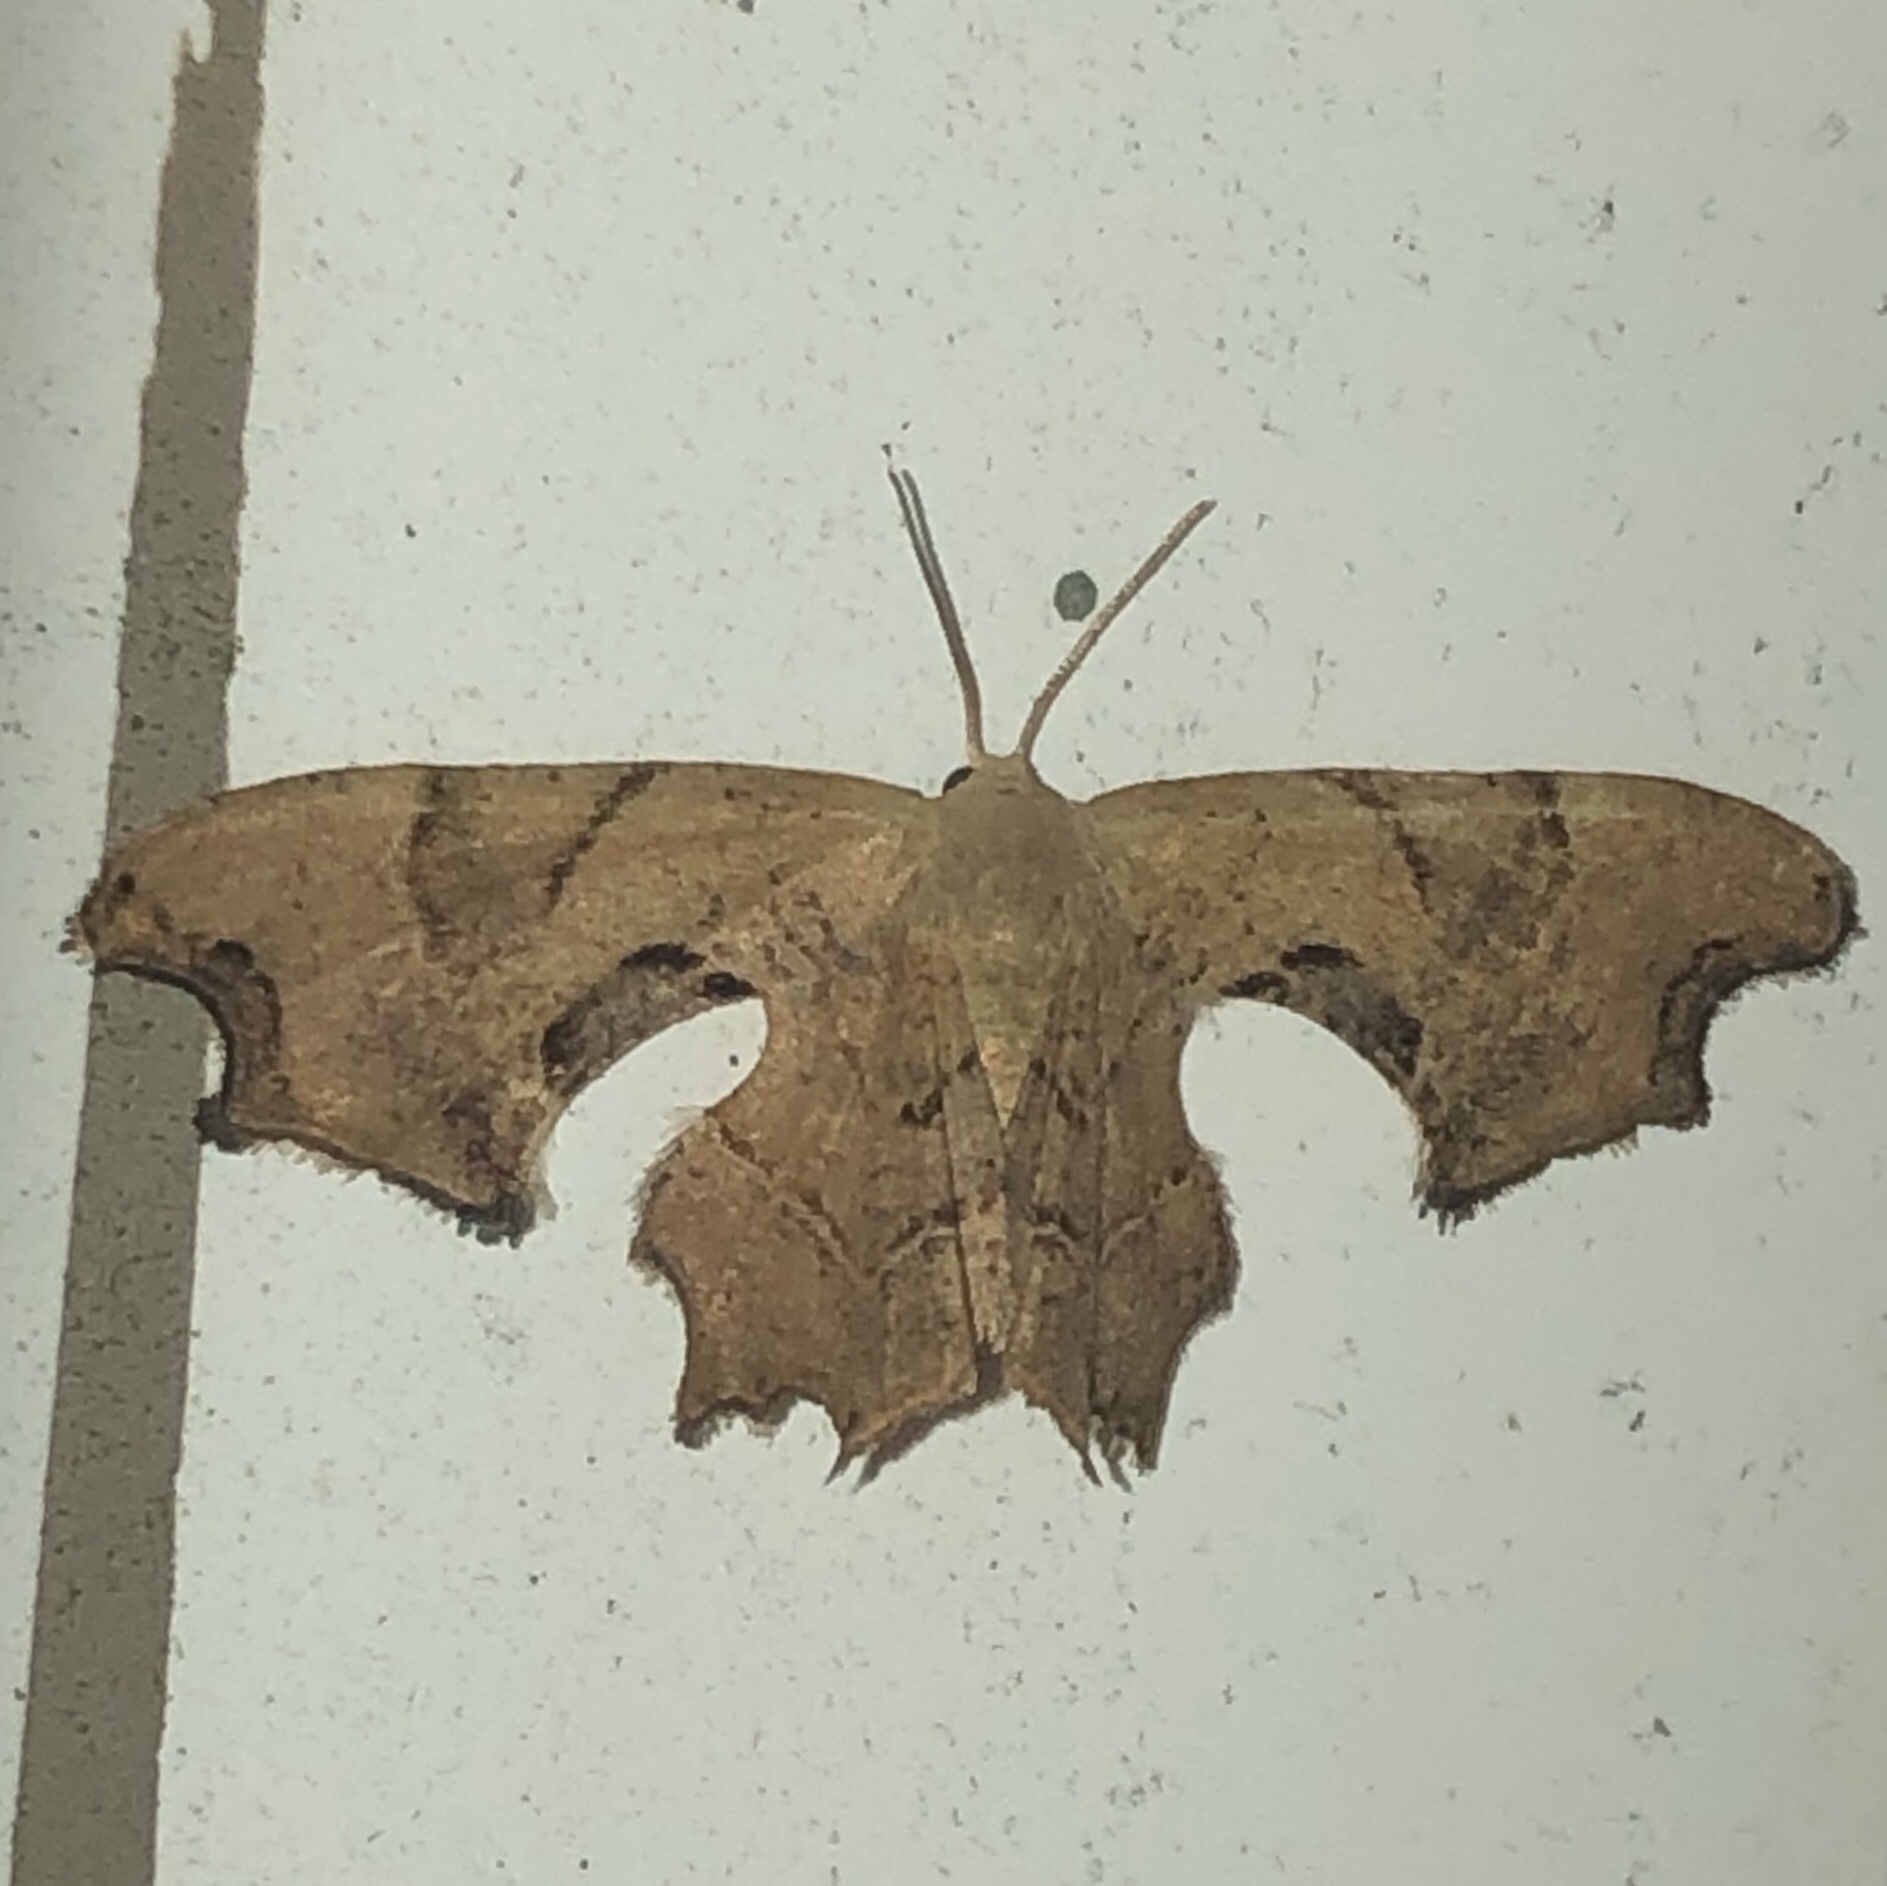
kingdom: Animalia
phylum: Arthropoda
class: Insecta
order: Lepidoptera
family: Uraniidae
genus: Epiplema
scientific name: Epiplema Calledapteryx dryopterata
